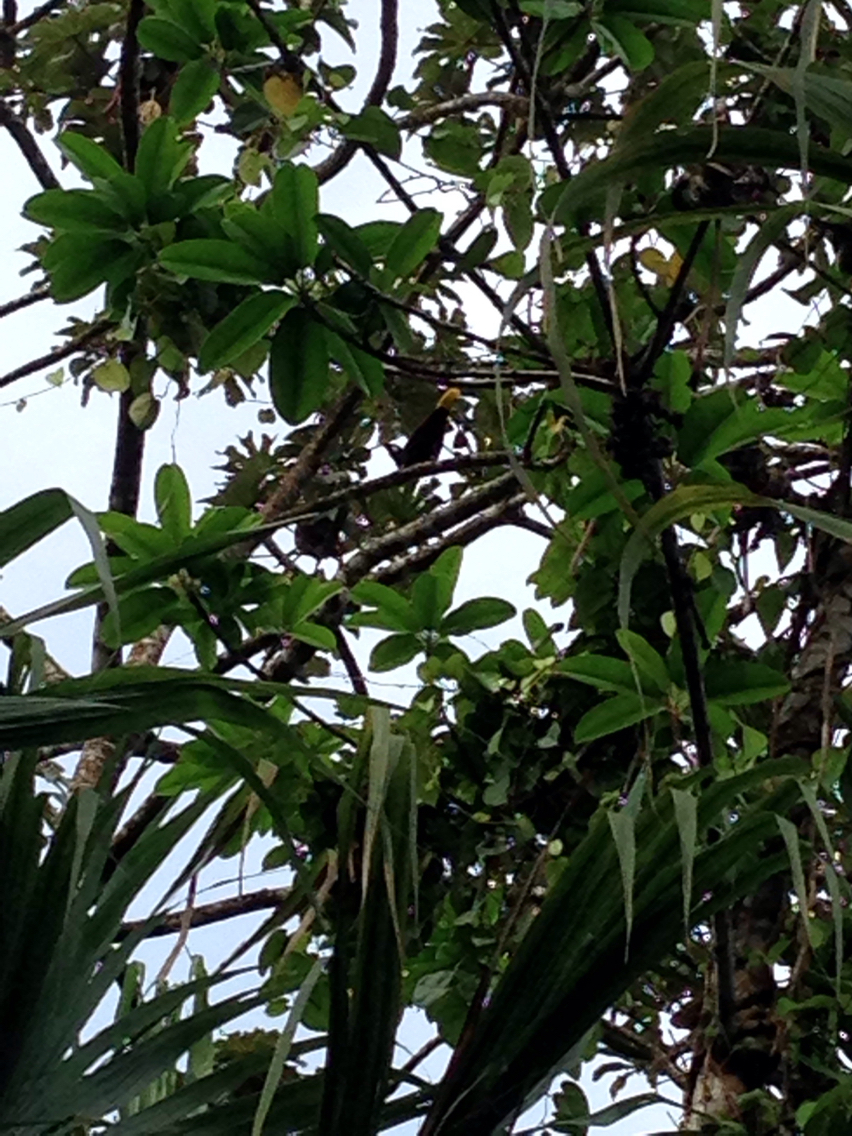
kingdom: Animalia
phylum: Chordata
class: Aves
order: Passeriformes
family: Icteridae
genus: Psarocolius
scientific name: Psarocolius montezuma
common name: Montezuma oropendola
